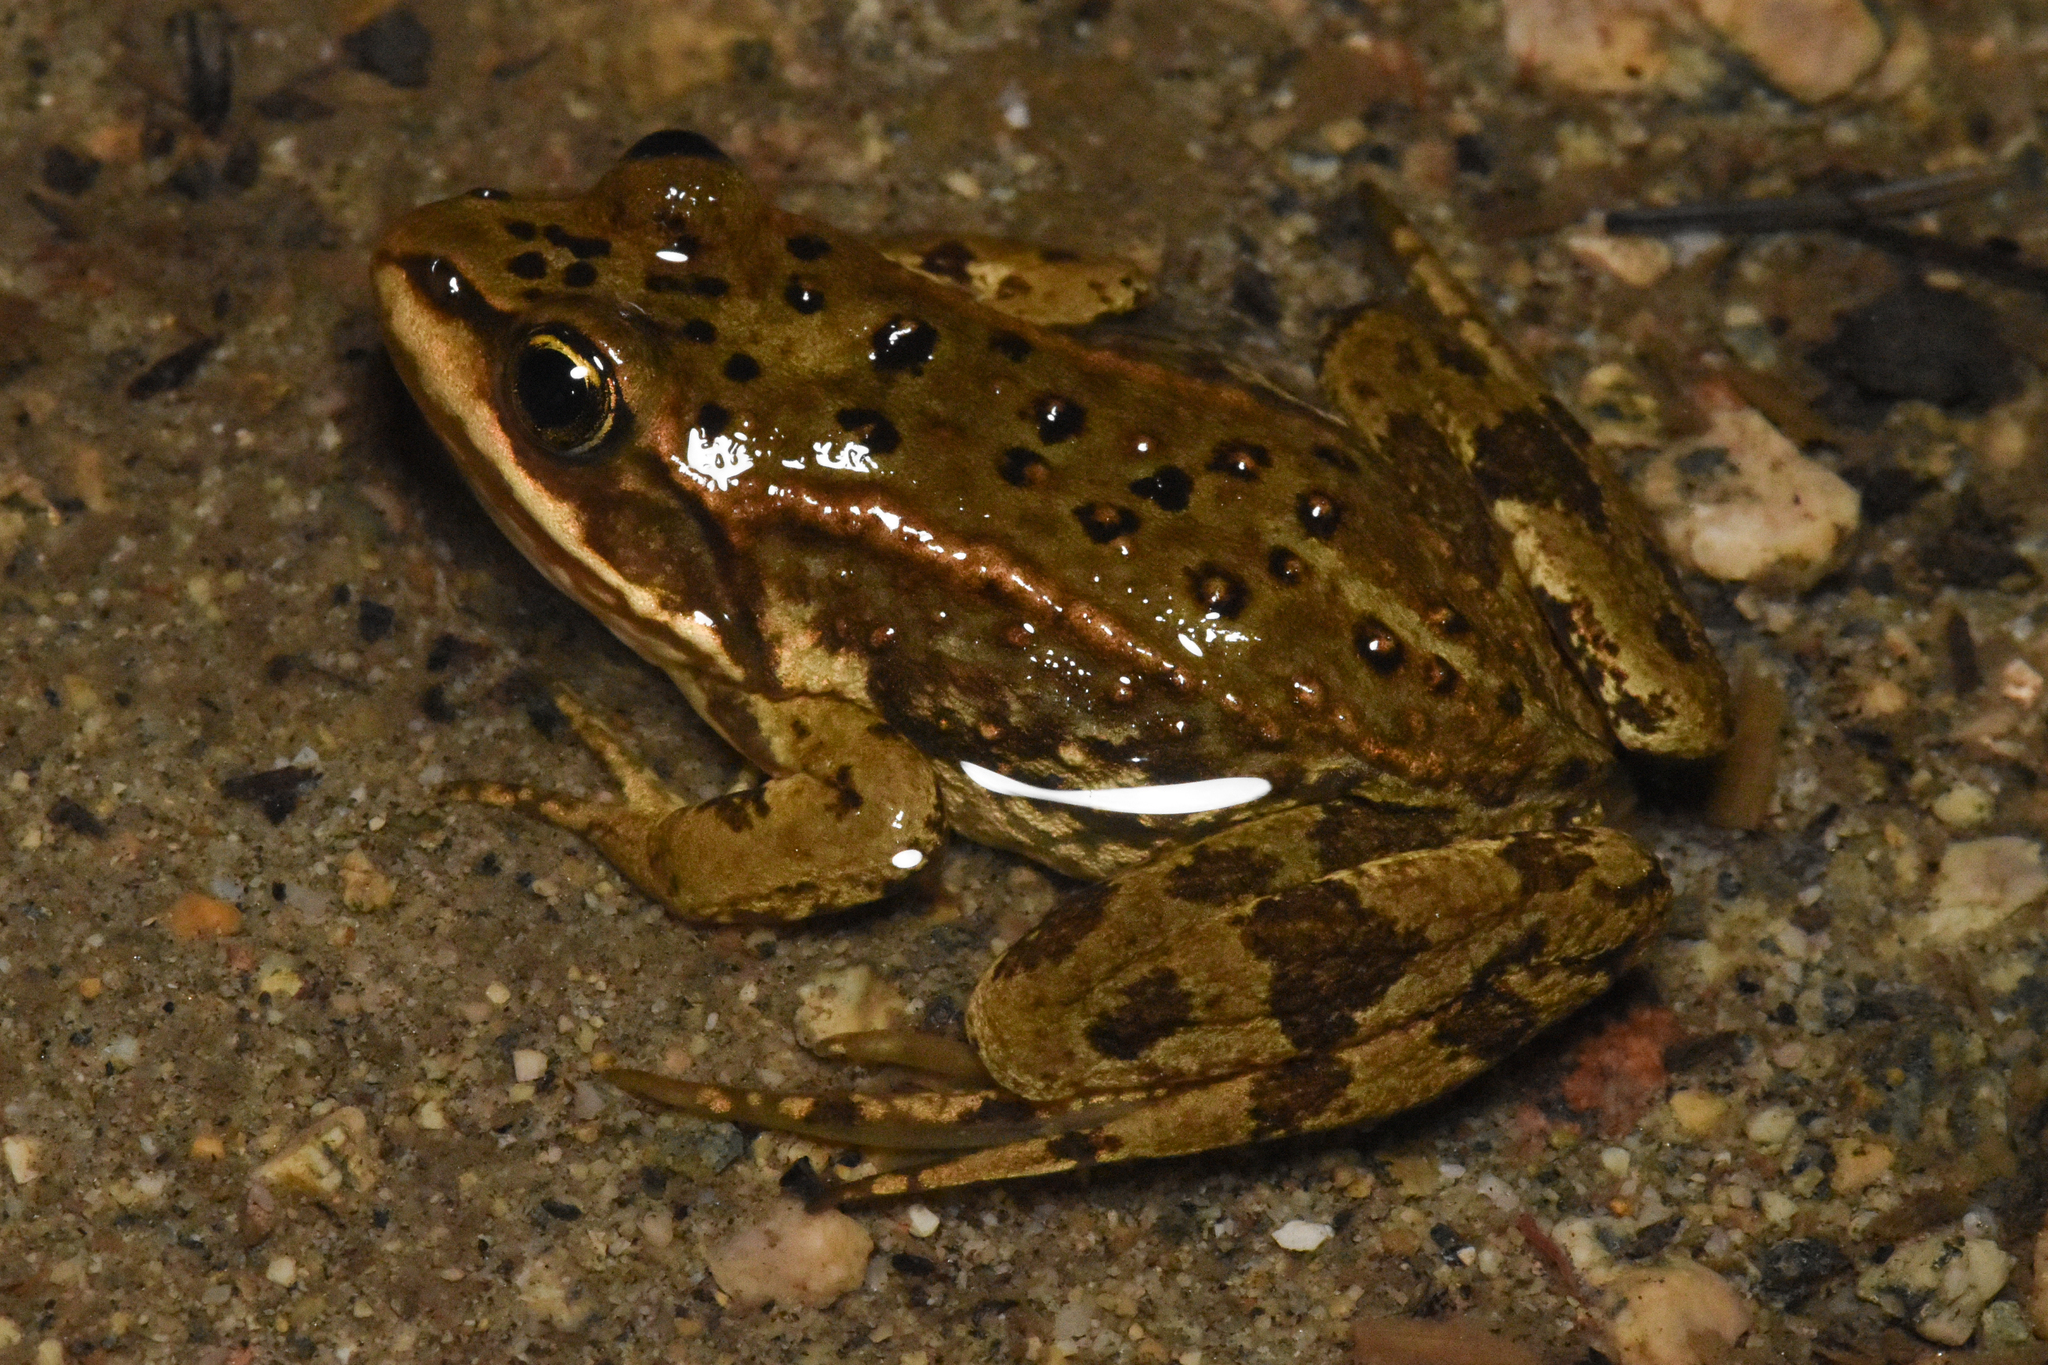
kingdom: Animalia
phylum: Chordata
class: Amphibia
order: Anura
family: Ranidae
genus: Rana
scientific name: Rana luteiventris
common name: Columbia spotted frog
